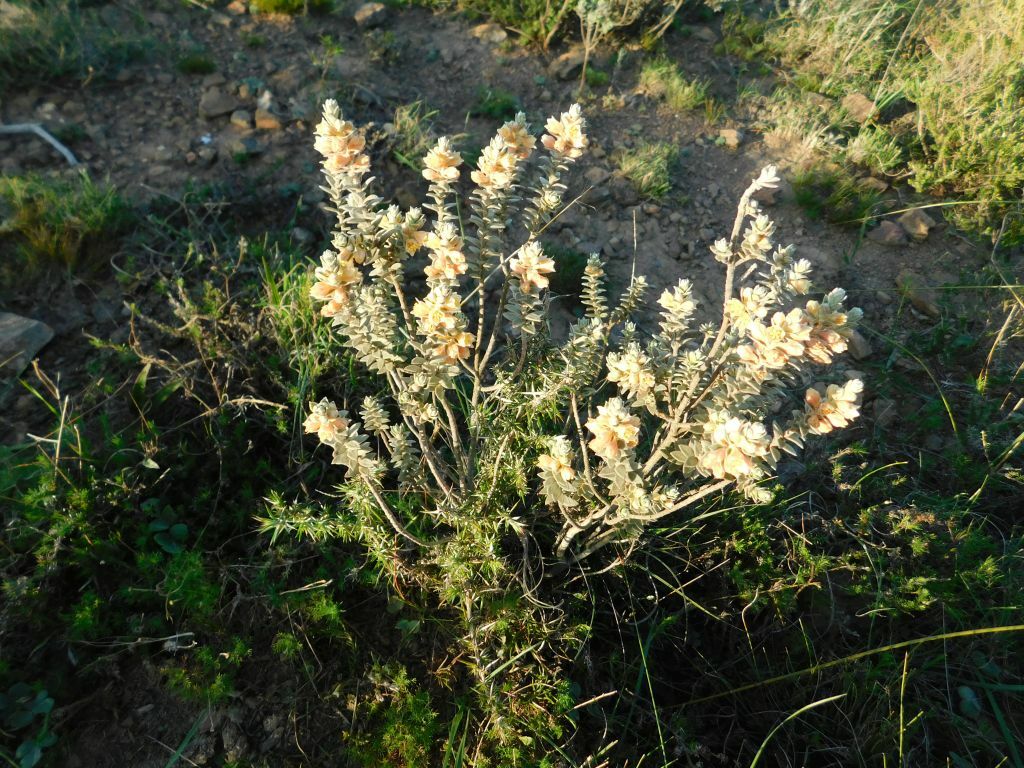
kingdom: Plantae
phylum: Tracheophyta
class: Magnoliopsida
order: Malpighiales
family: Peraceae
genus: Clutia
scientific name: Clutia tomentosa
